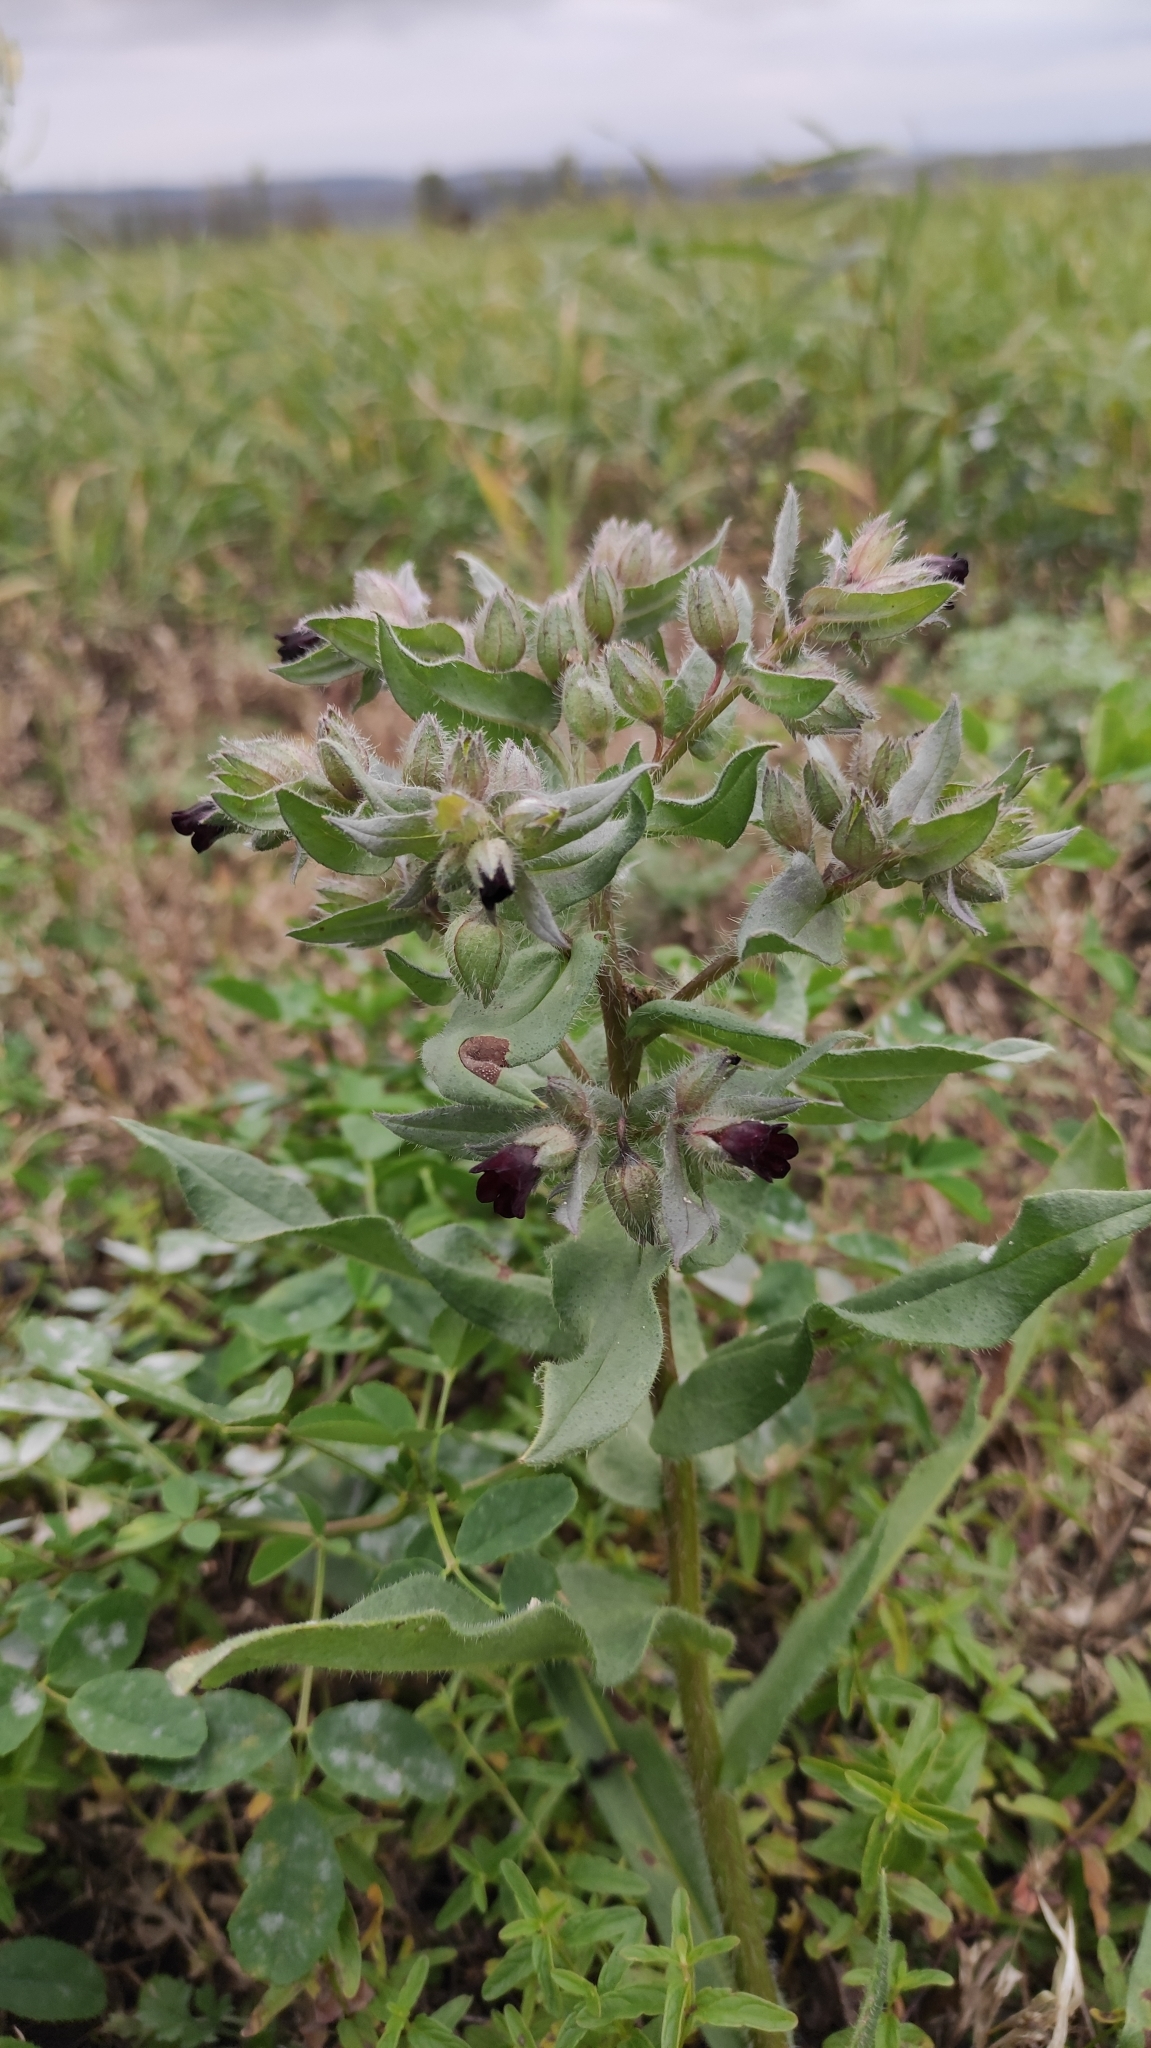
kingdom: Plantae
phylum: Tracheophyta
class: Magnoliopsida
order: Boraginales
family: Boraginaceae
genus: Nonea
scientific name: Nonea pulla
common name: Brown nonea
